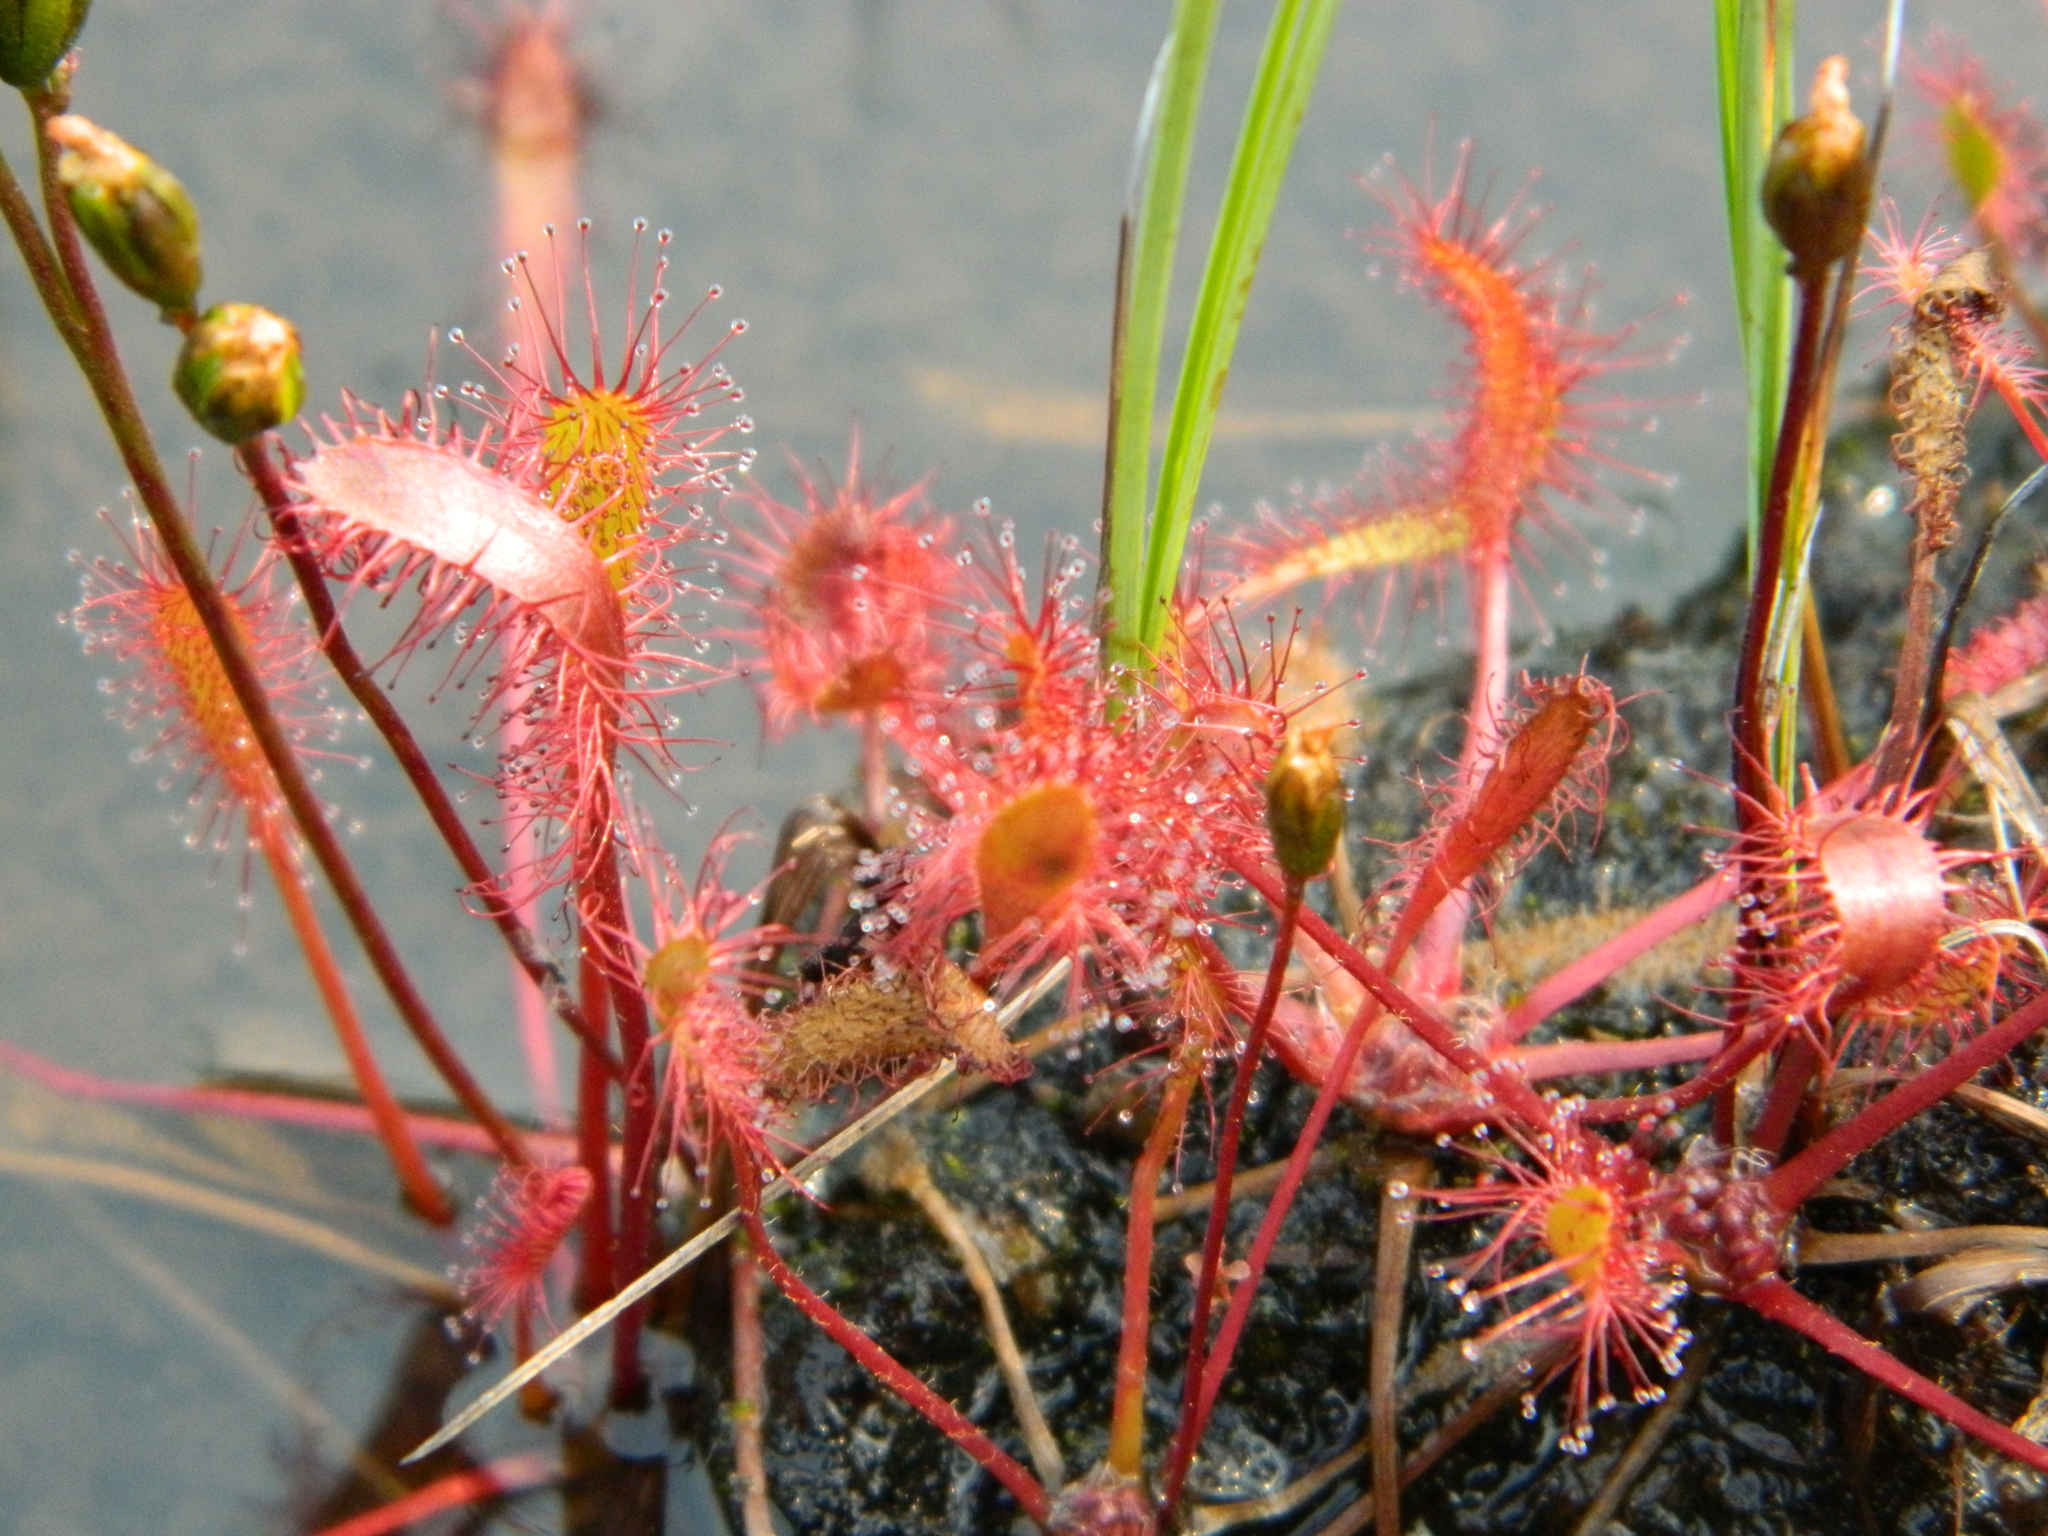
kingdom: Plantae
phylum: Tracheophyta
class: Magnoliopsida
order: Caryophyllales
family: Droseraceae
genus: Drosera
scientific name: Drosera anglica
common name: Great sundew
